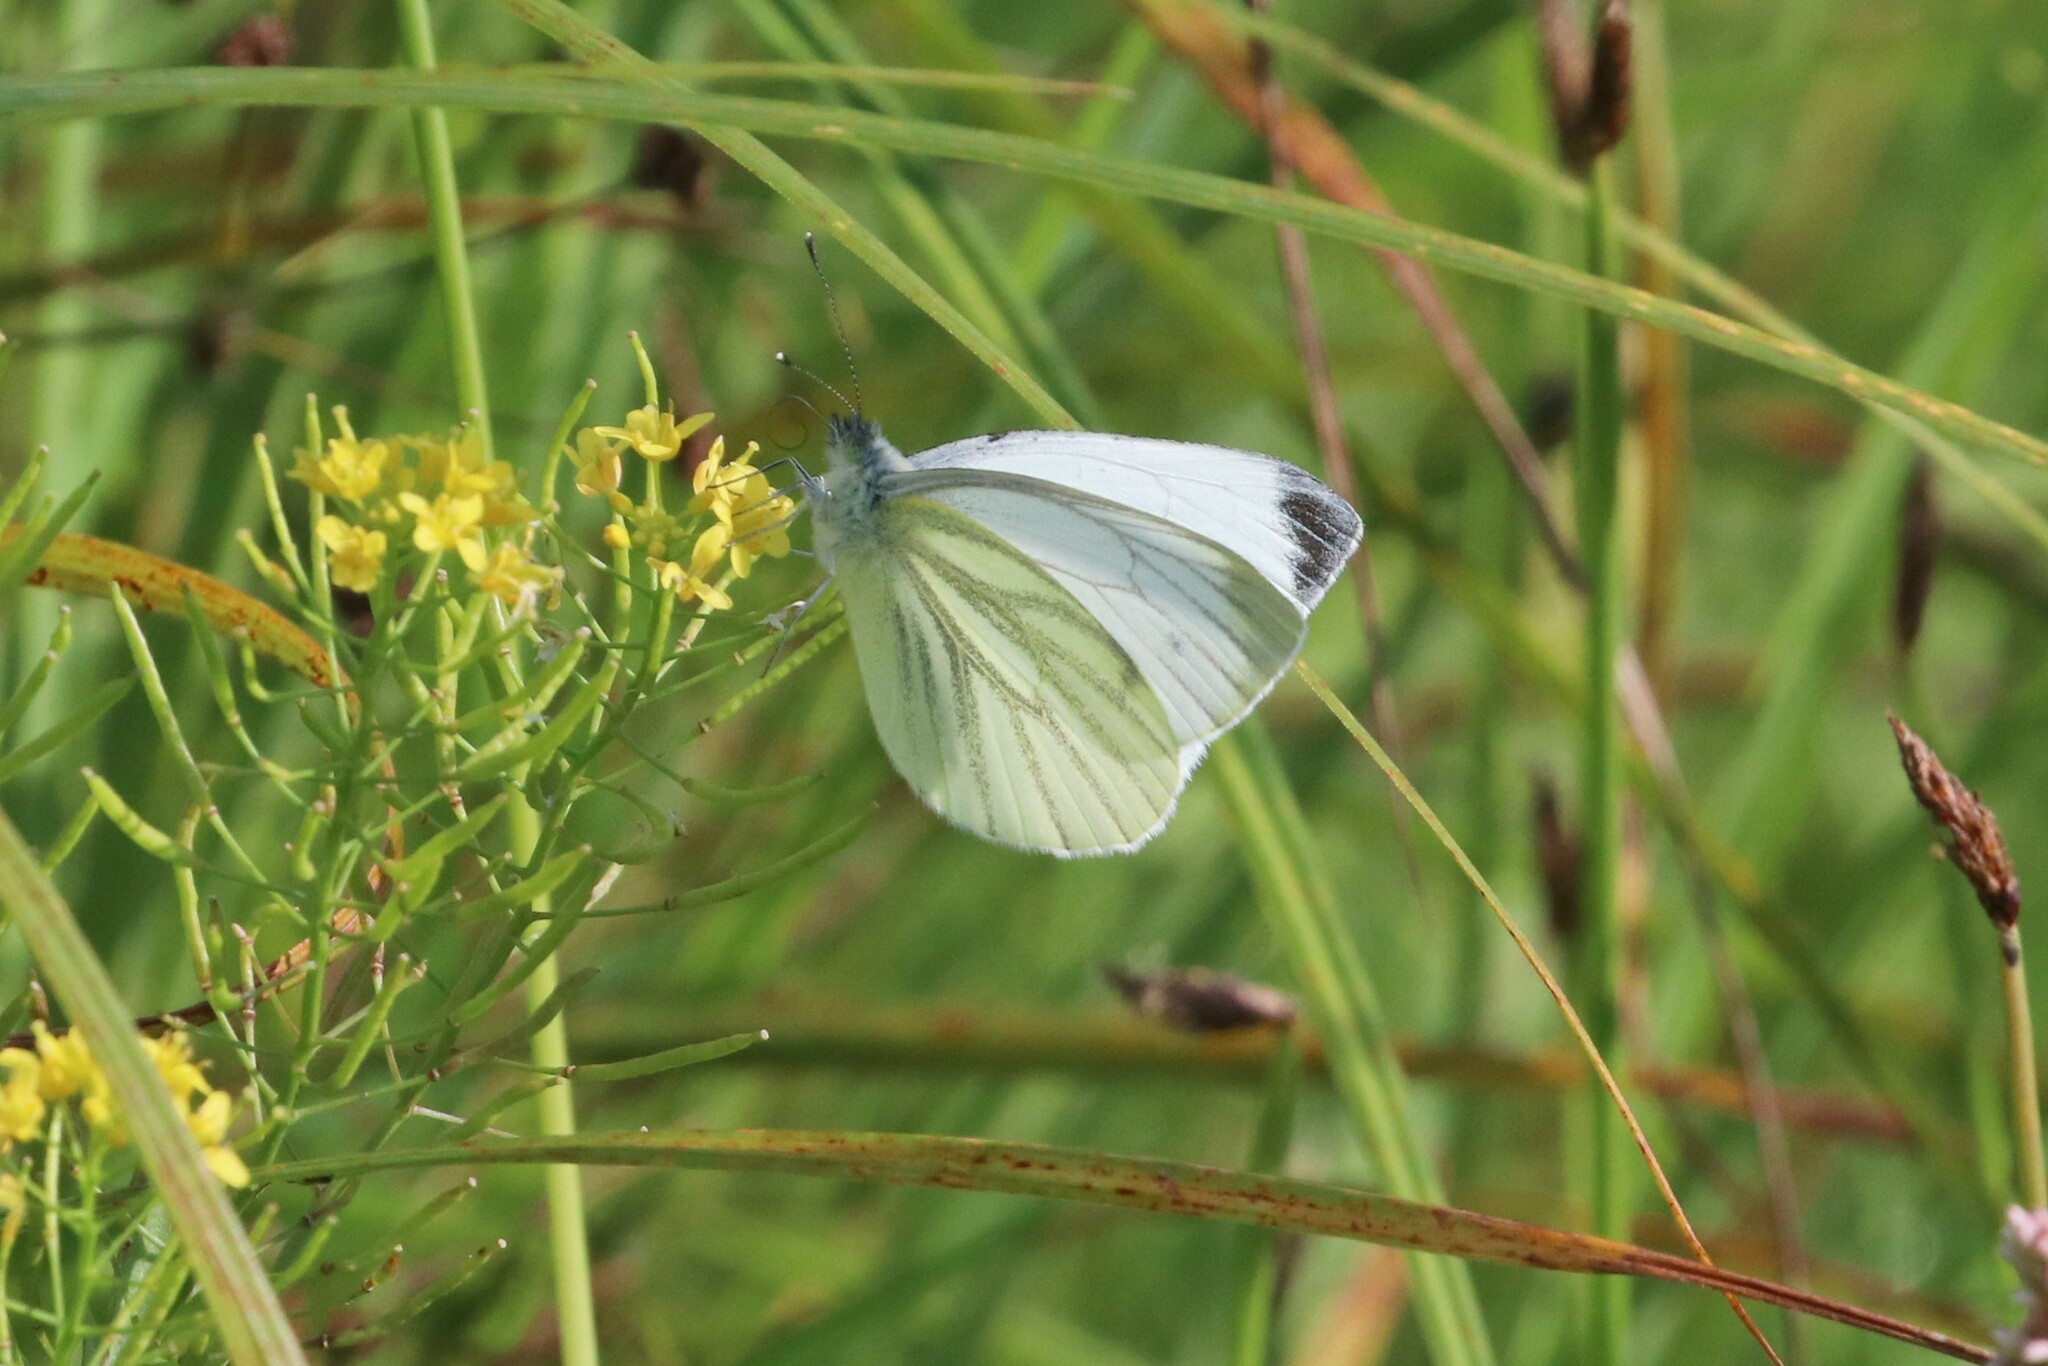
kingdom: Animalia
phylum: Arthropoda
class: Insecta
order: Lepidoptera
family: Pieridae
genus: Pieris
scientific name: Pieris napi
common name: Green-veined white
